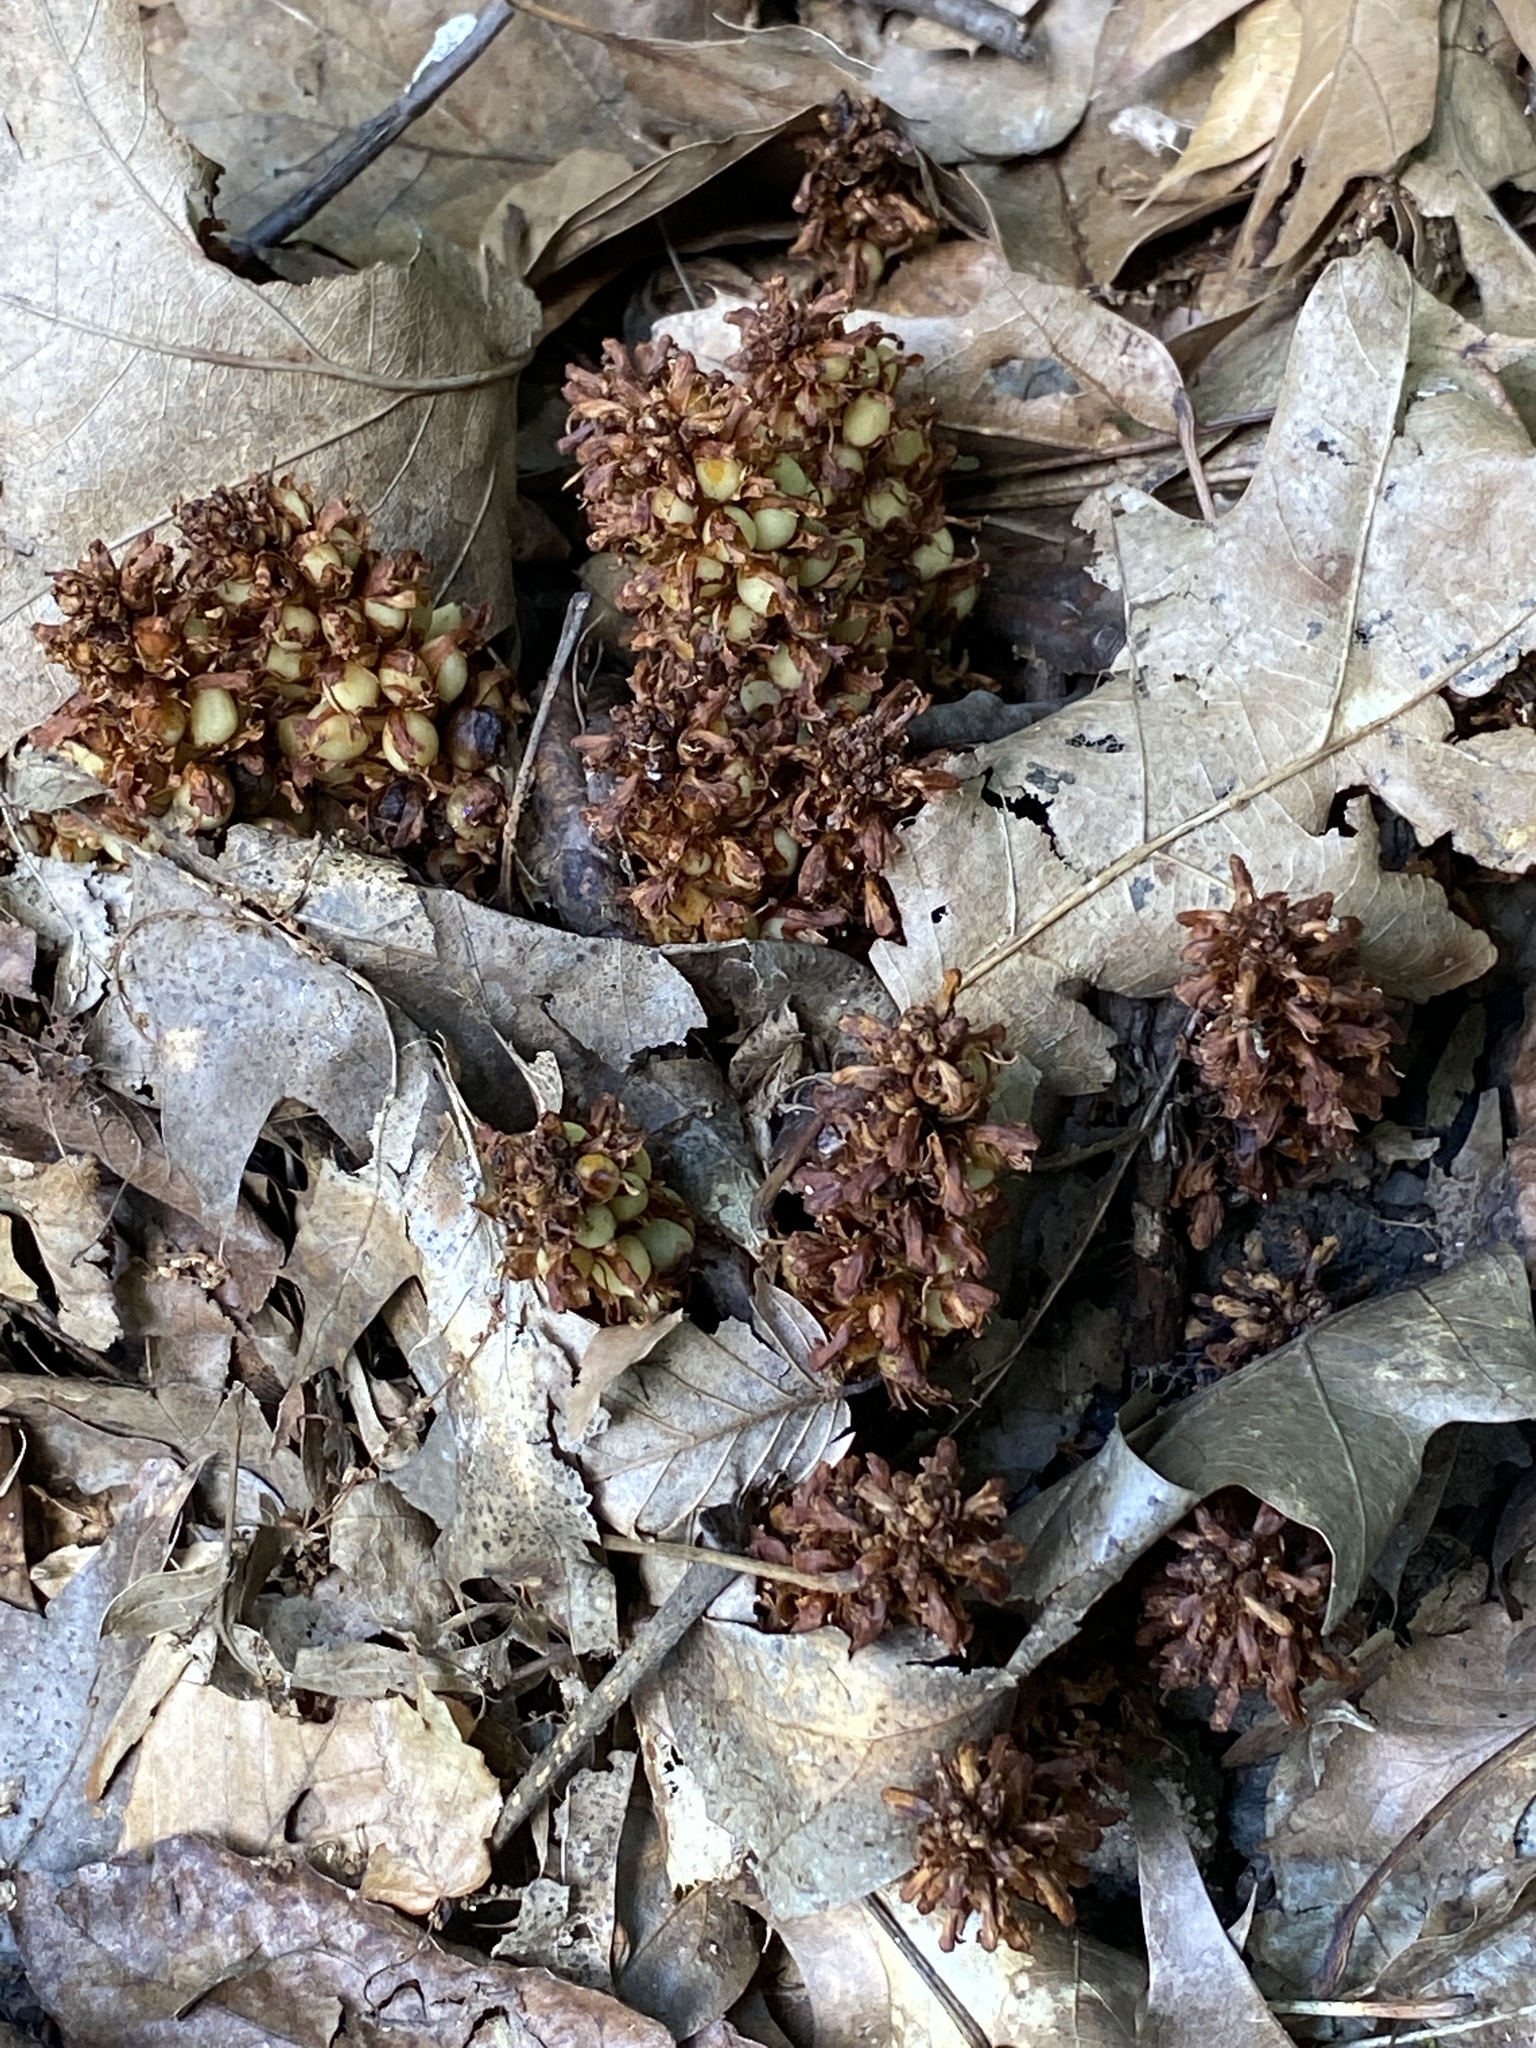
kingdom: Plantae
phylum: Tracheophyta
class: Magnoliopsida
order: Lamiales
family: Orobanchaceae
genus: Conopholis
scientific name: Conopholis americana
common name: American cancer-root
